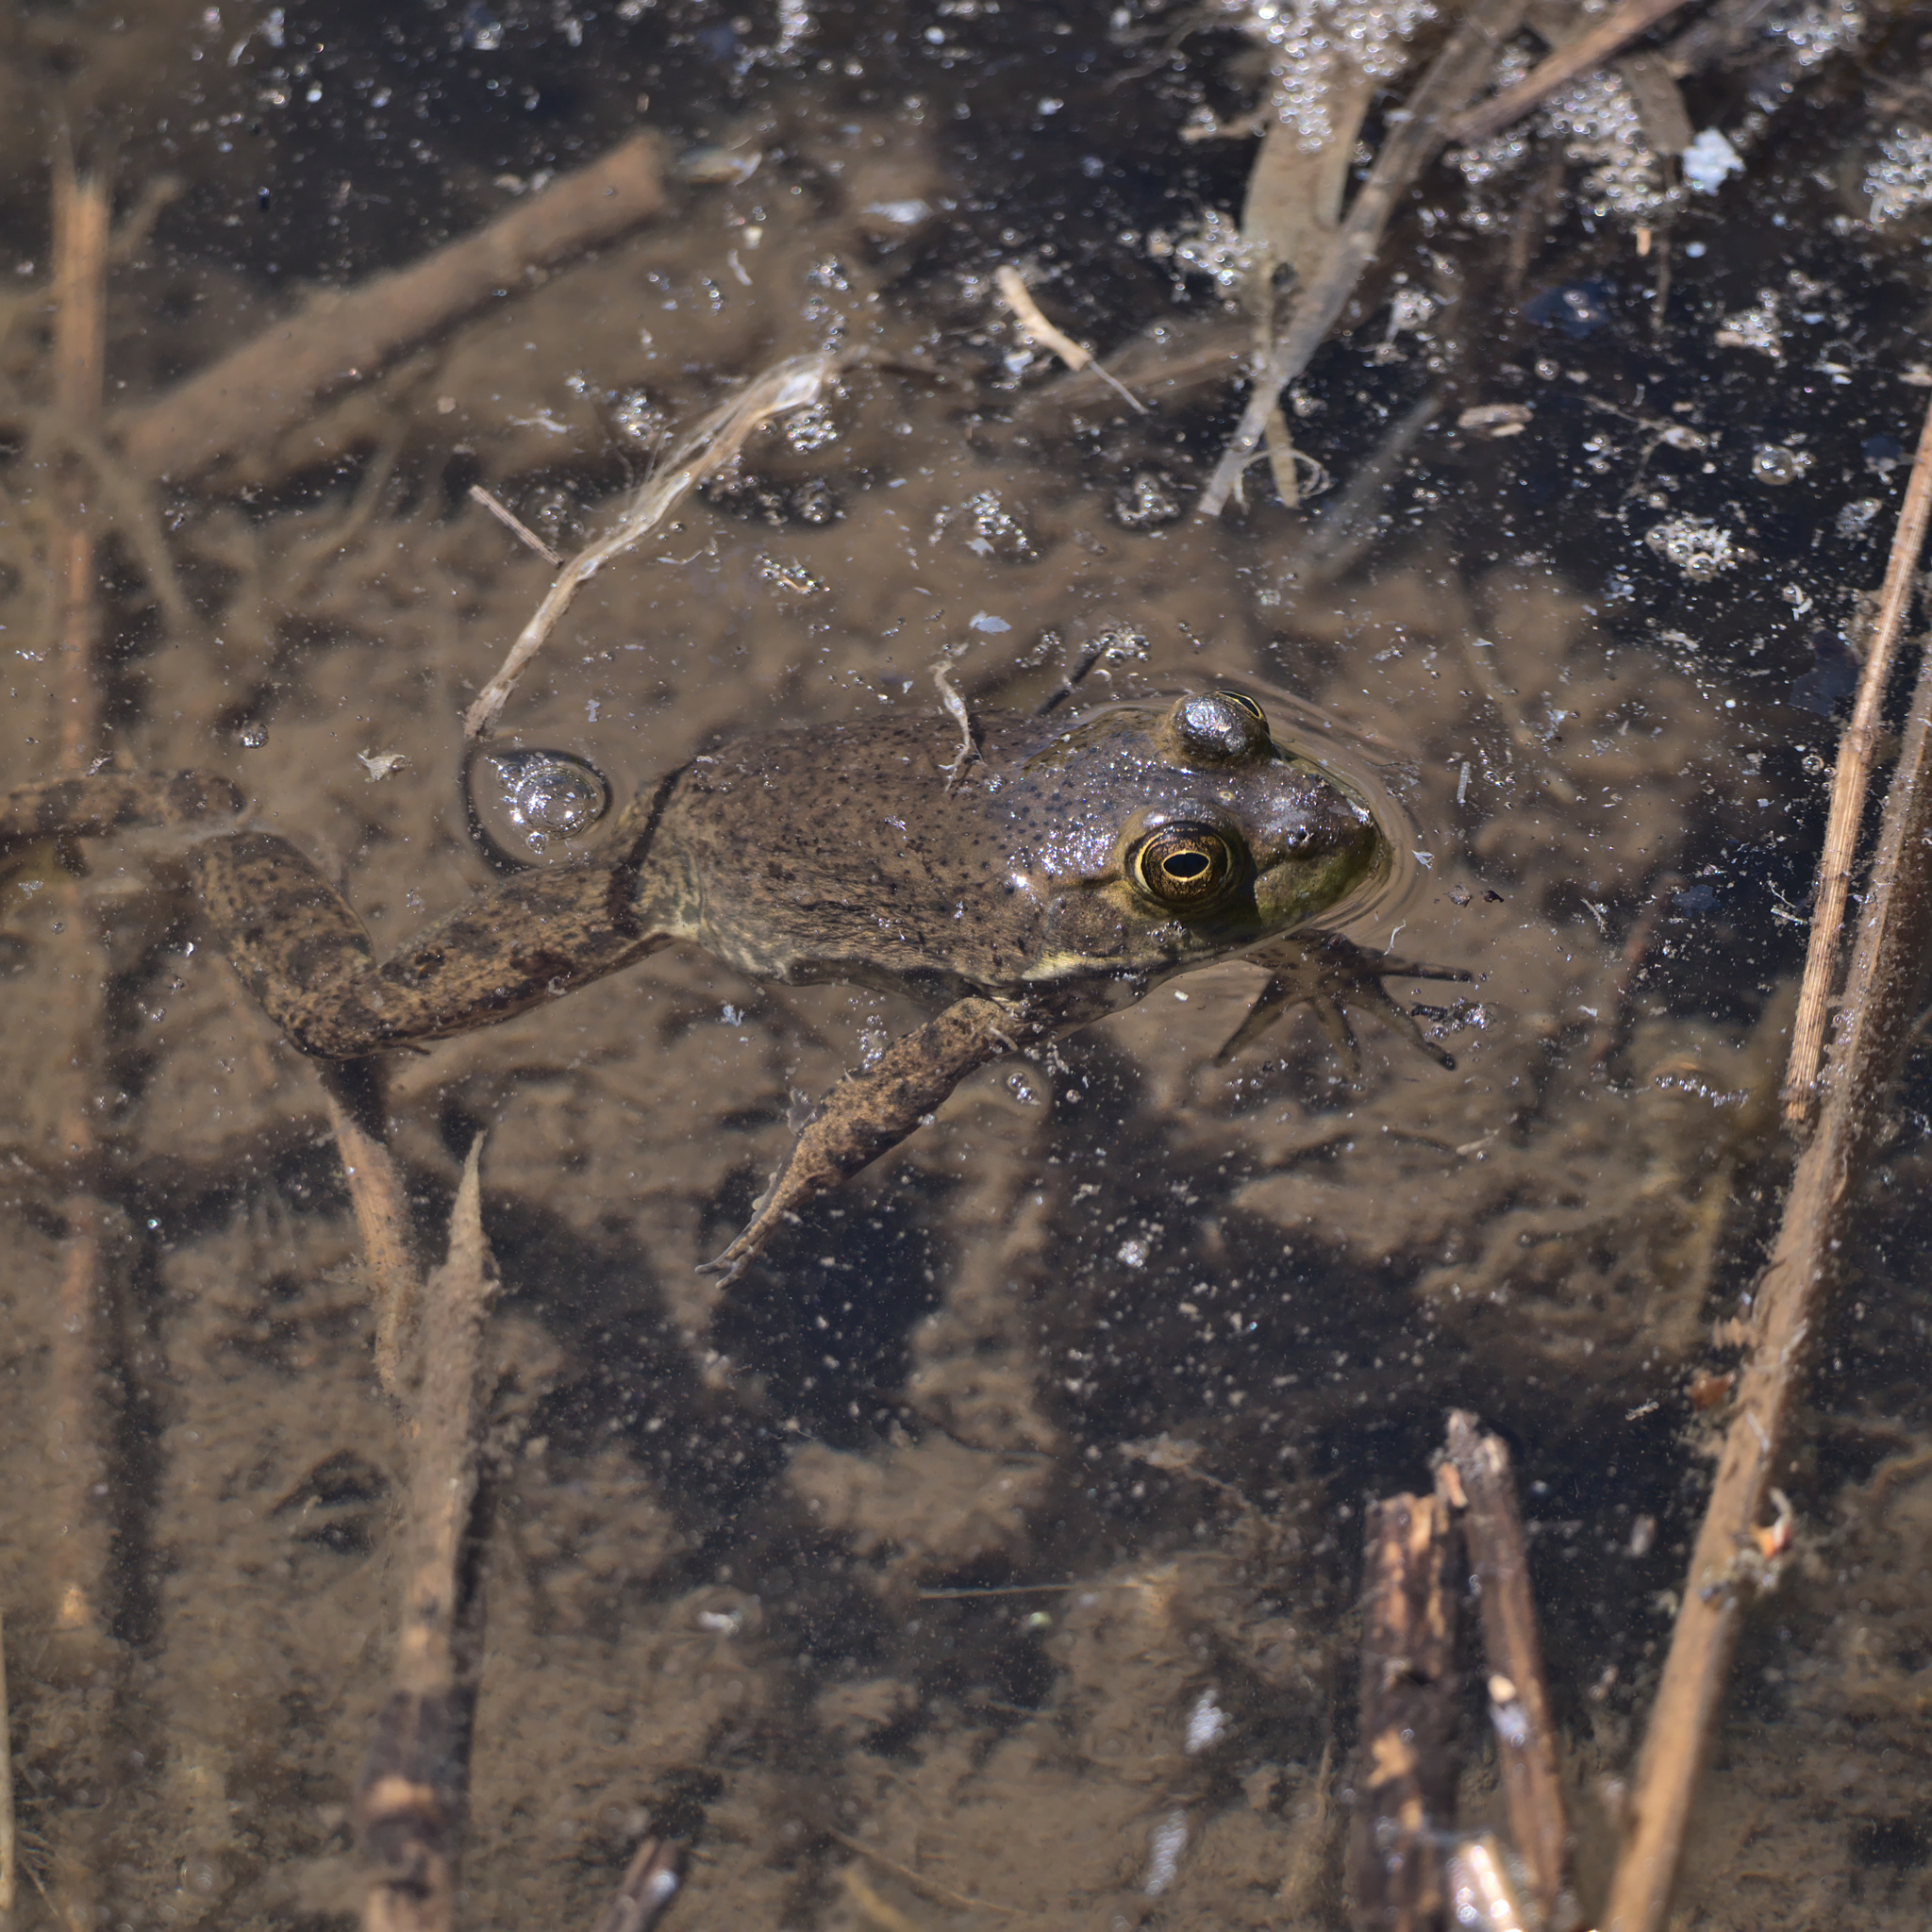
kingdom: Animalia
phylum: Chordata
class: Amphibia
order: Anura
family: Ranidae
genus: Lithobates
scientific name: Lithobates catesbeianus
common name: American bullfrog
